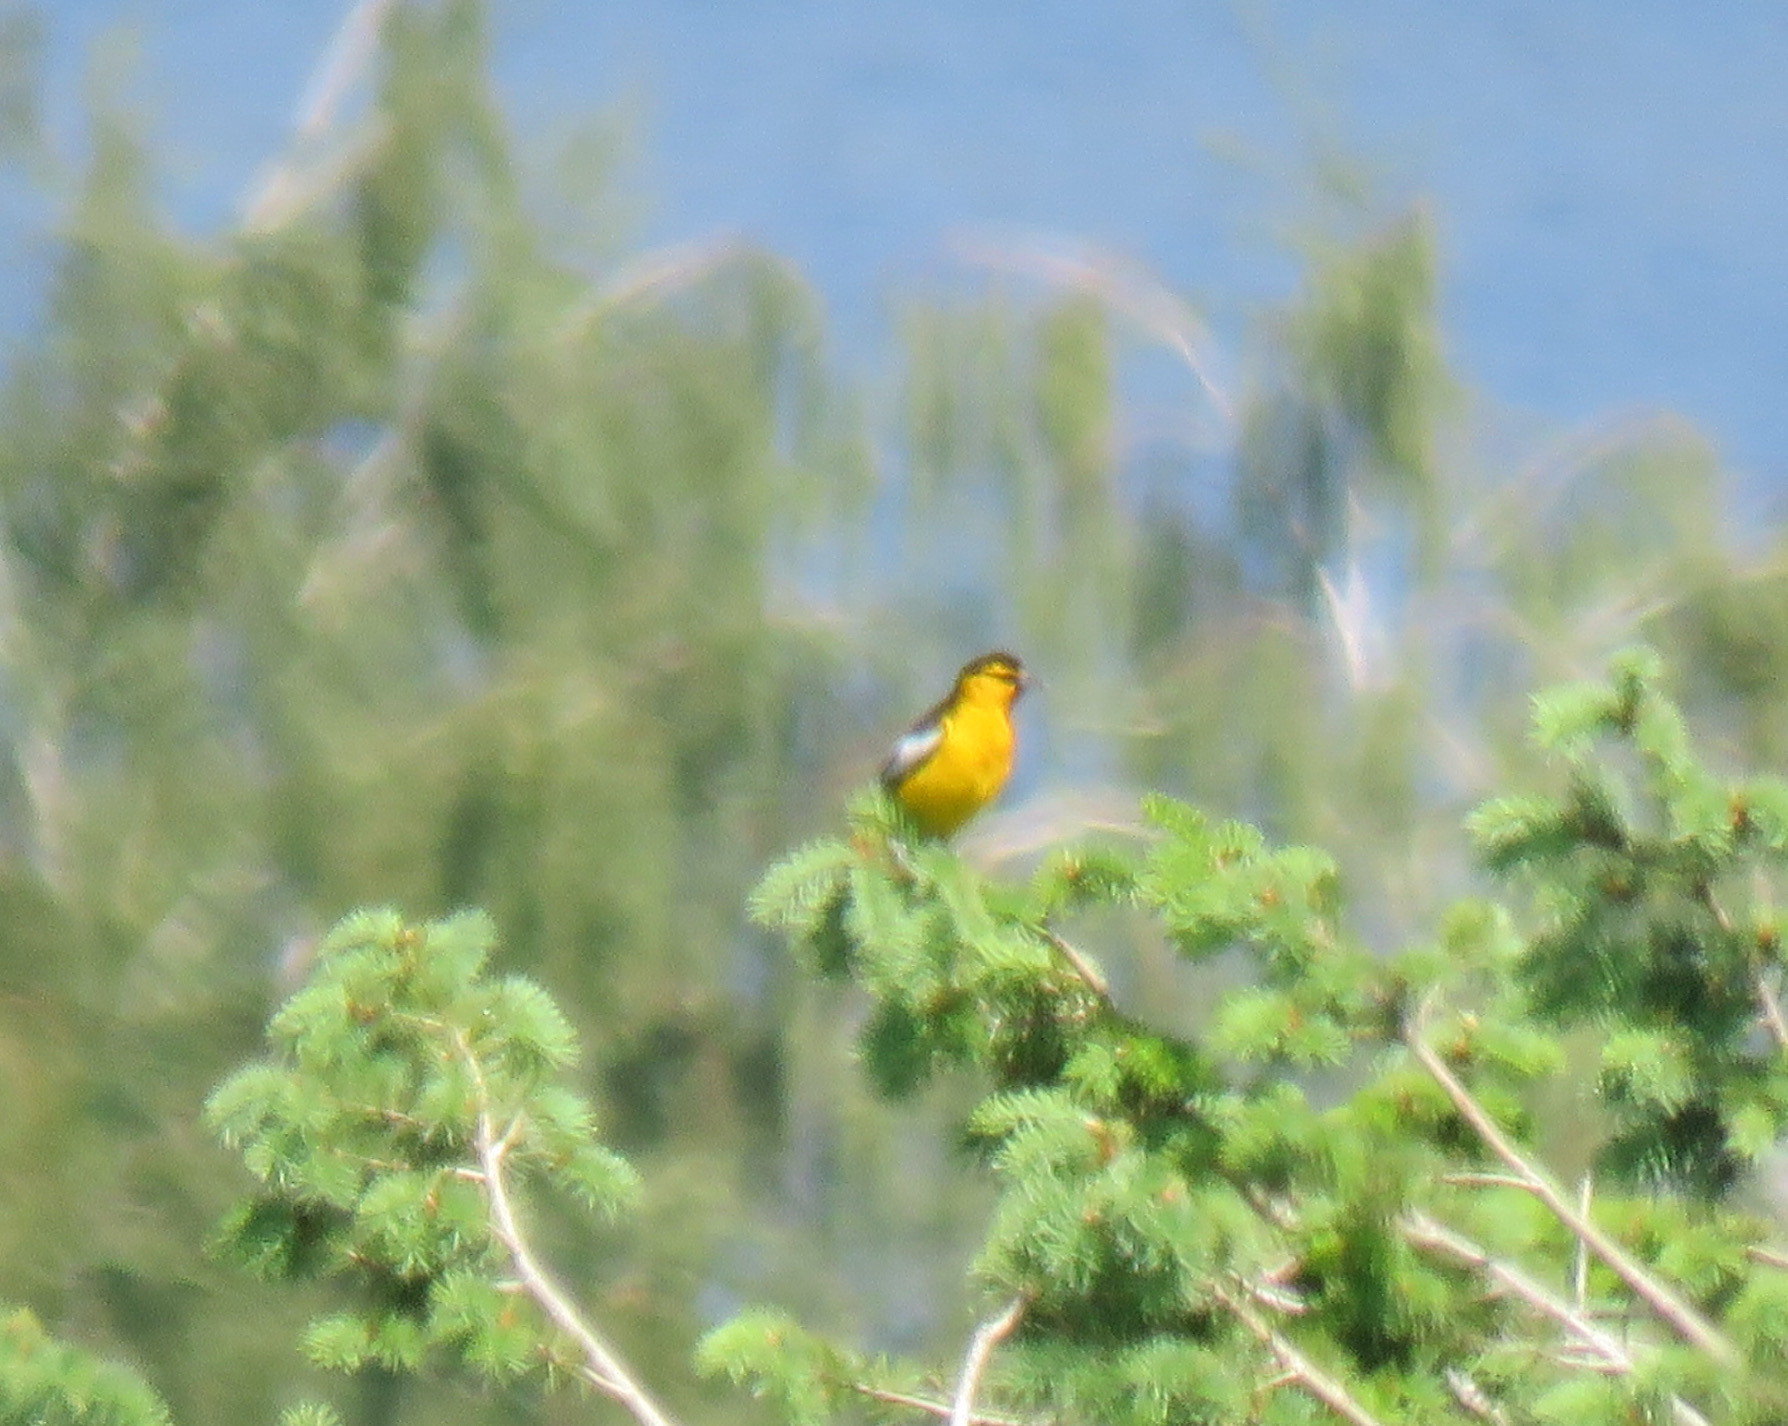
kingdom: Animalia
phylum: Chordata
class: Aves
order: Passeriformes
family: Icteridae
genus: Icterus
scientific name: Icterus bullockii
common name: Bullock's oriole
